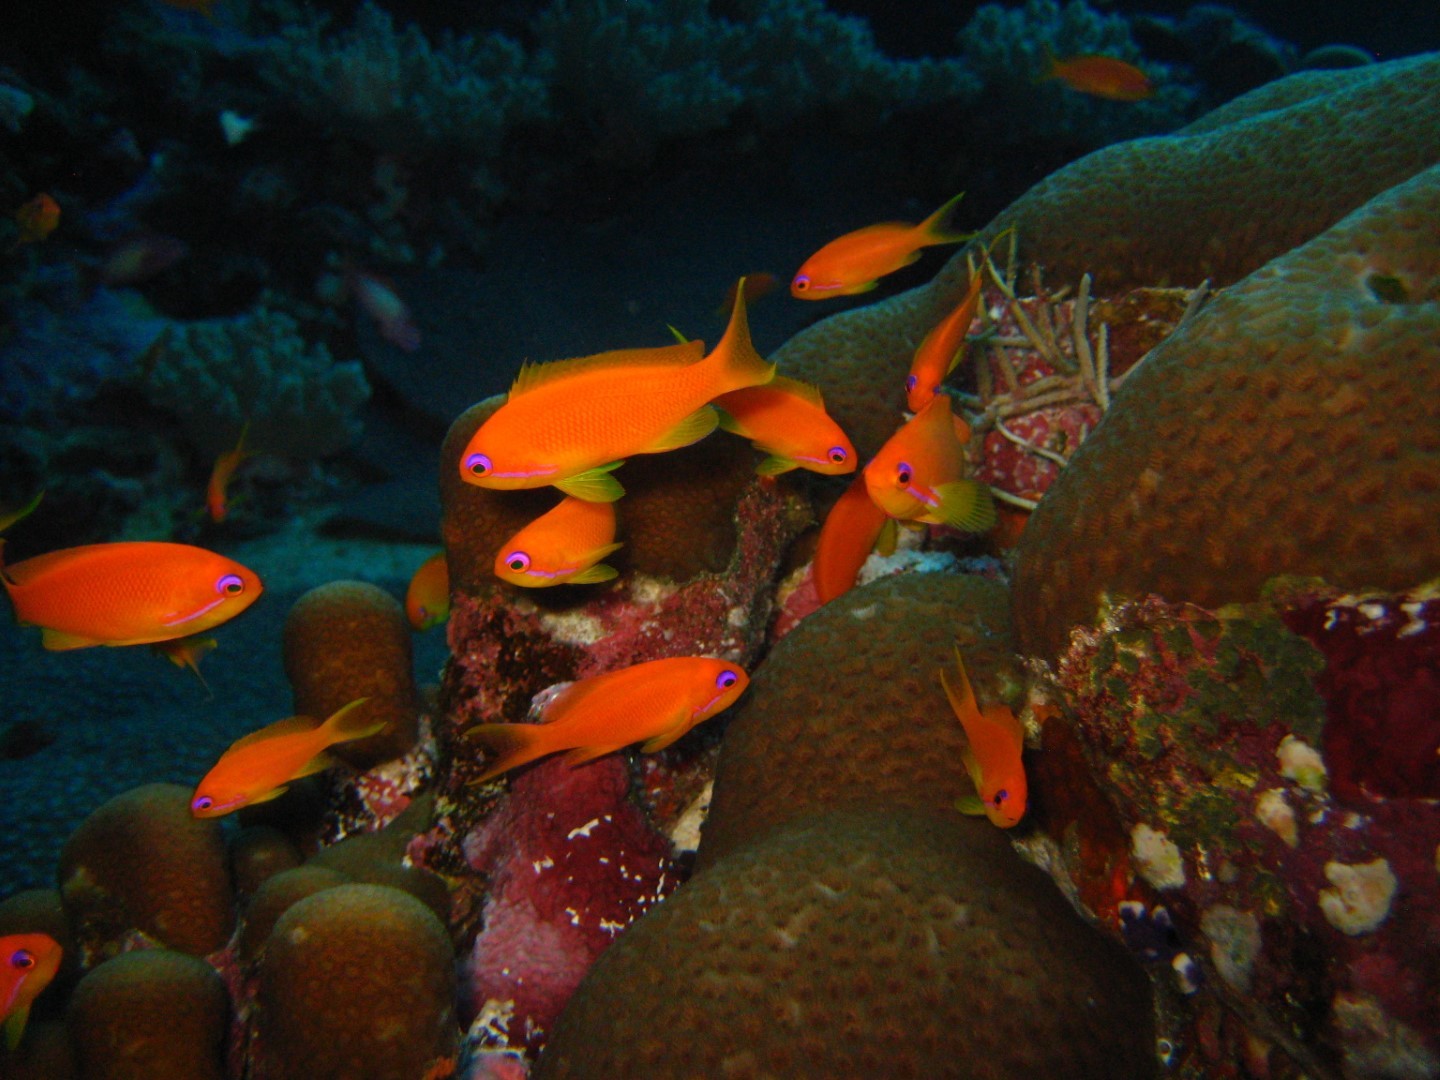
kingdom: Animalia
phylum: Chordata
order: Perciformes
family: Serranidae
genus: Pseudanthias
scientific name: Pseudanthias squamipinnis
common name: Scalefin anthias
